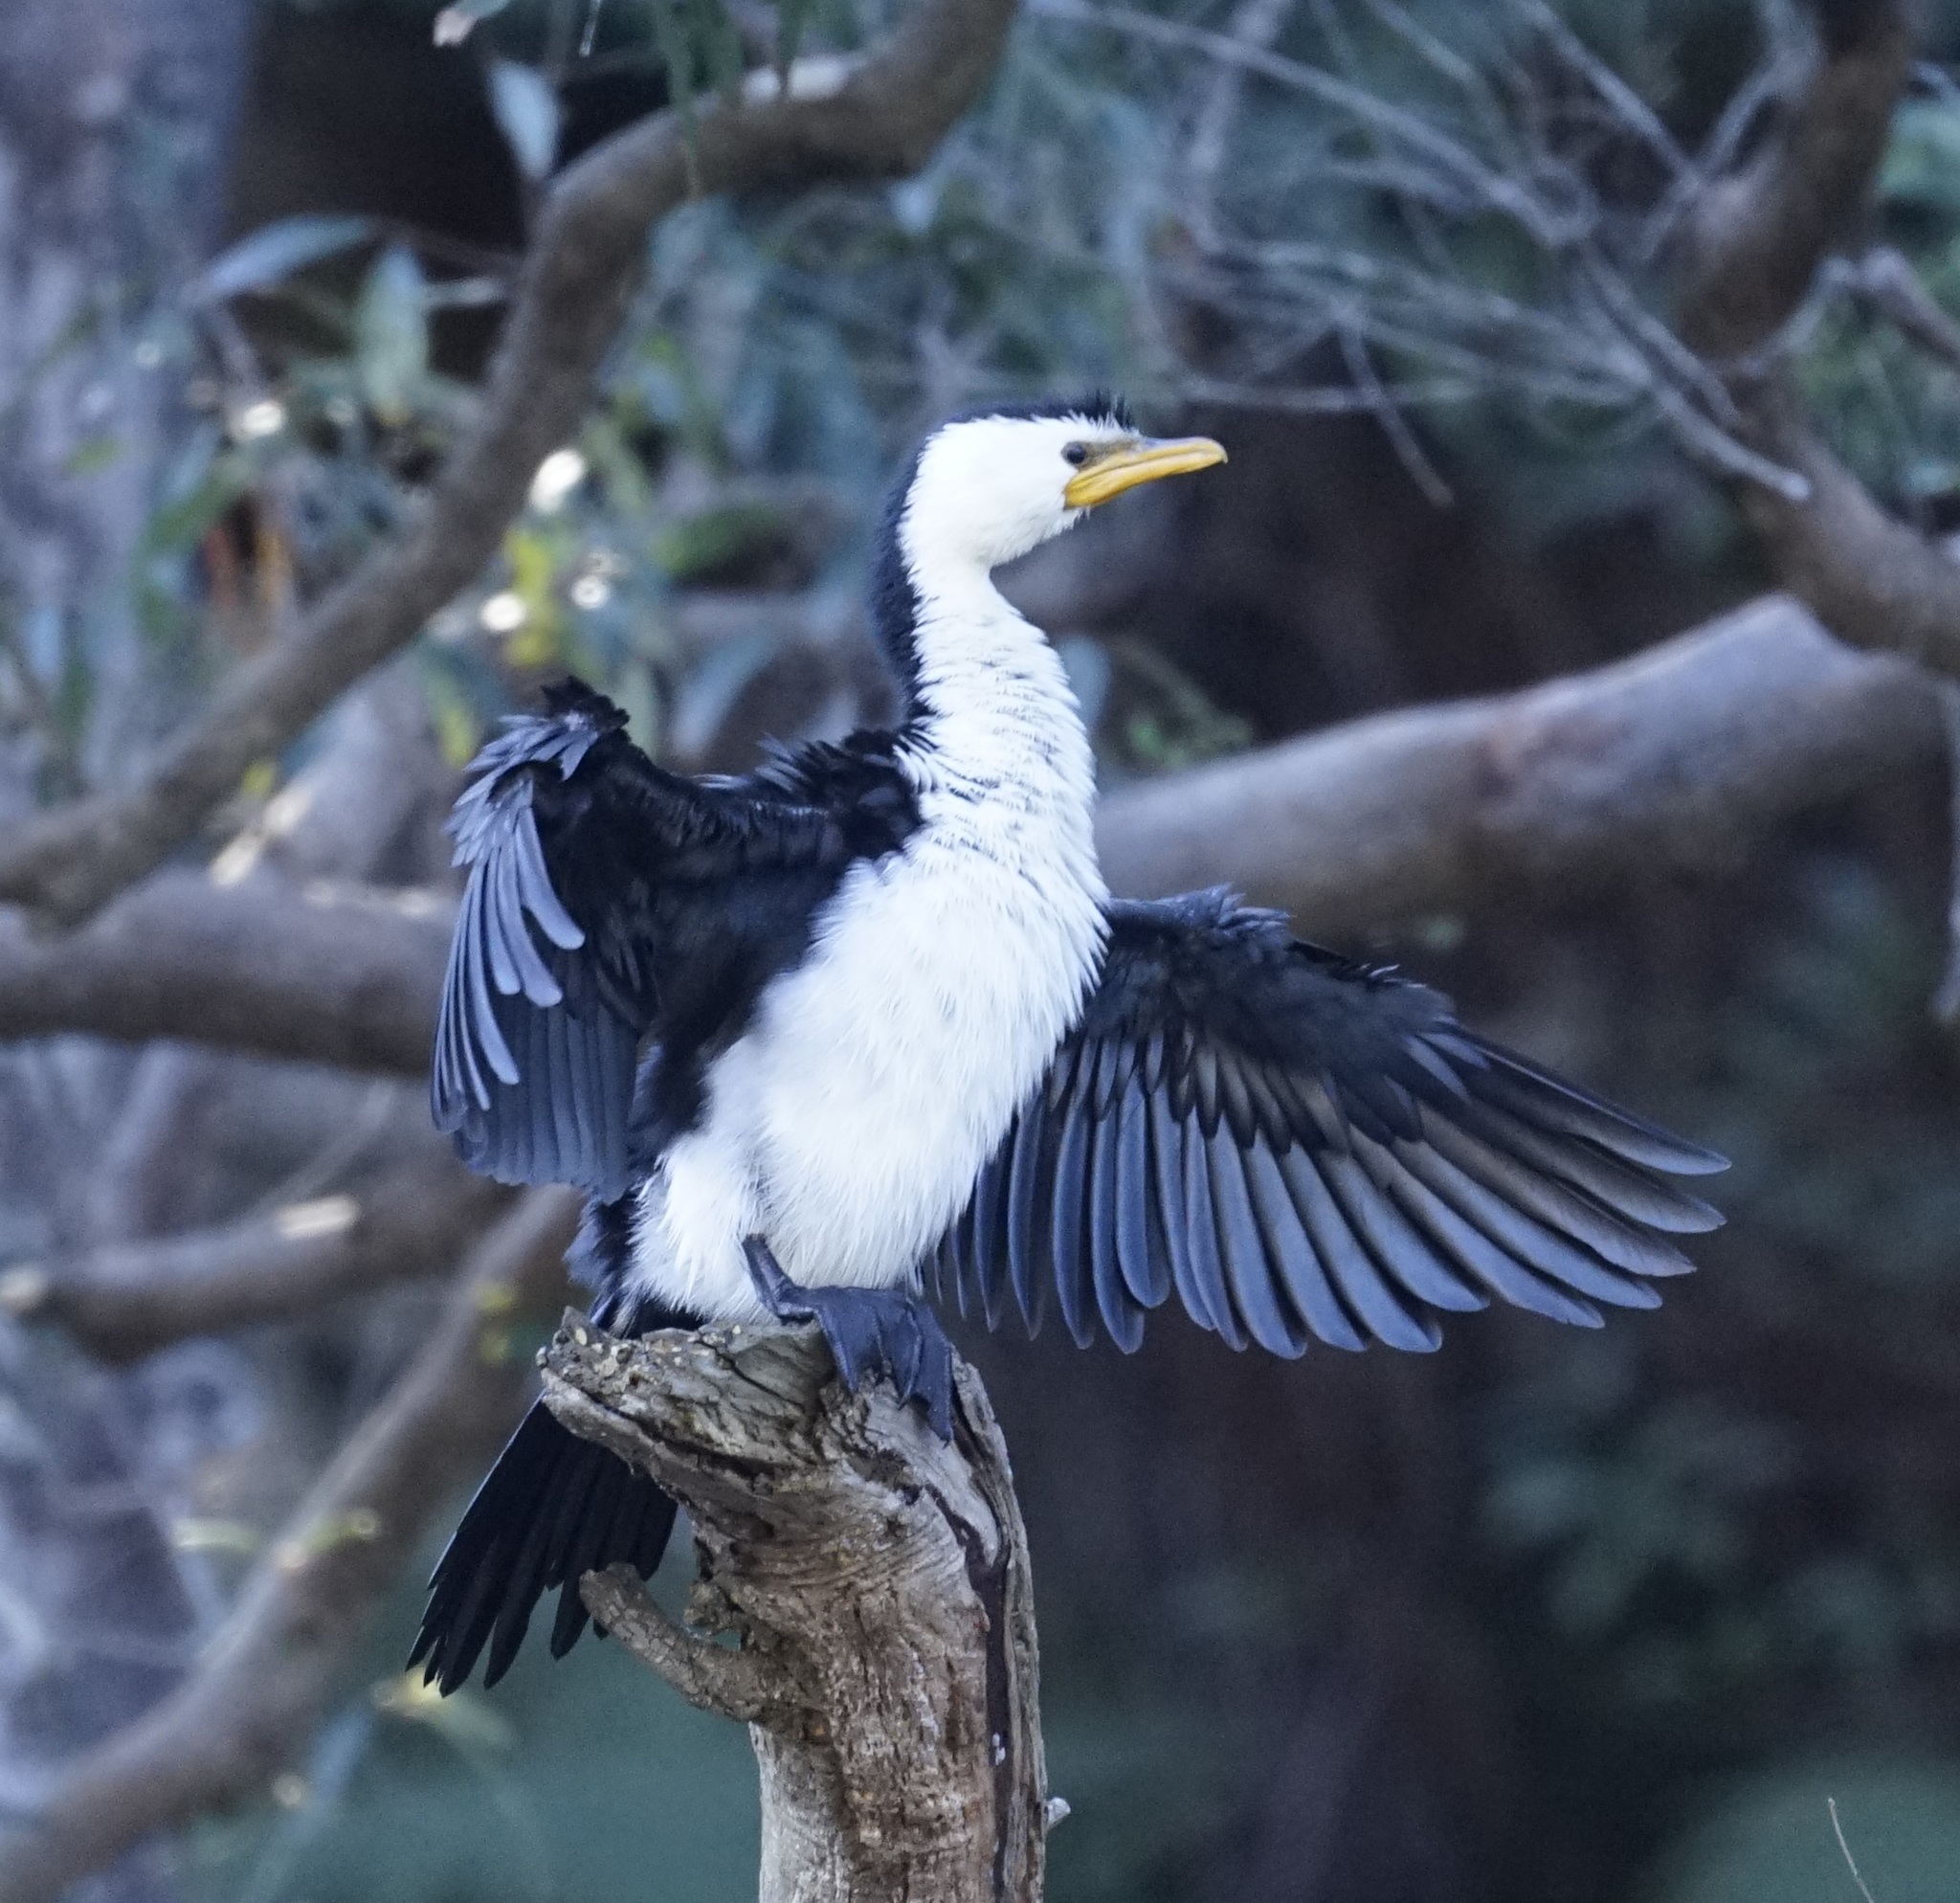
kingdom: Animalia
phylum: Chordata
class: Aves
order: Suliformes
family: Phalacrocoracidae
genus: Microcarbo
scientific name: Microcarbo melanoleucos
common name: Little pied cormorant
